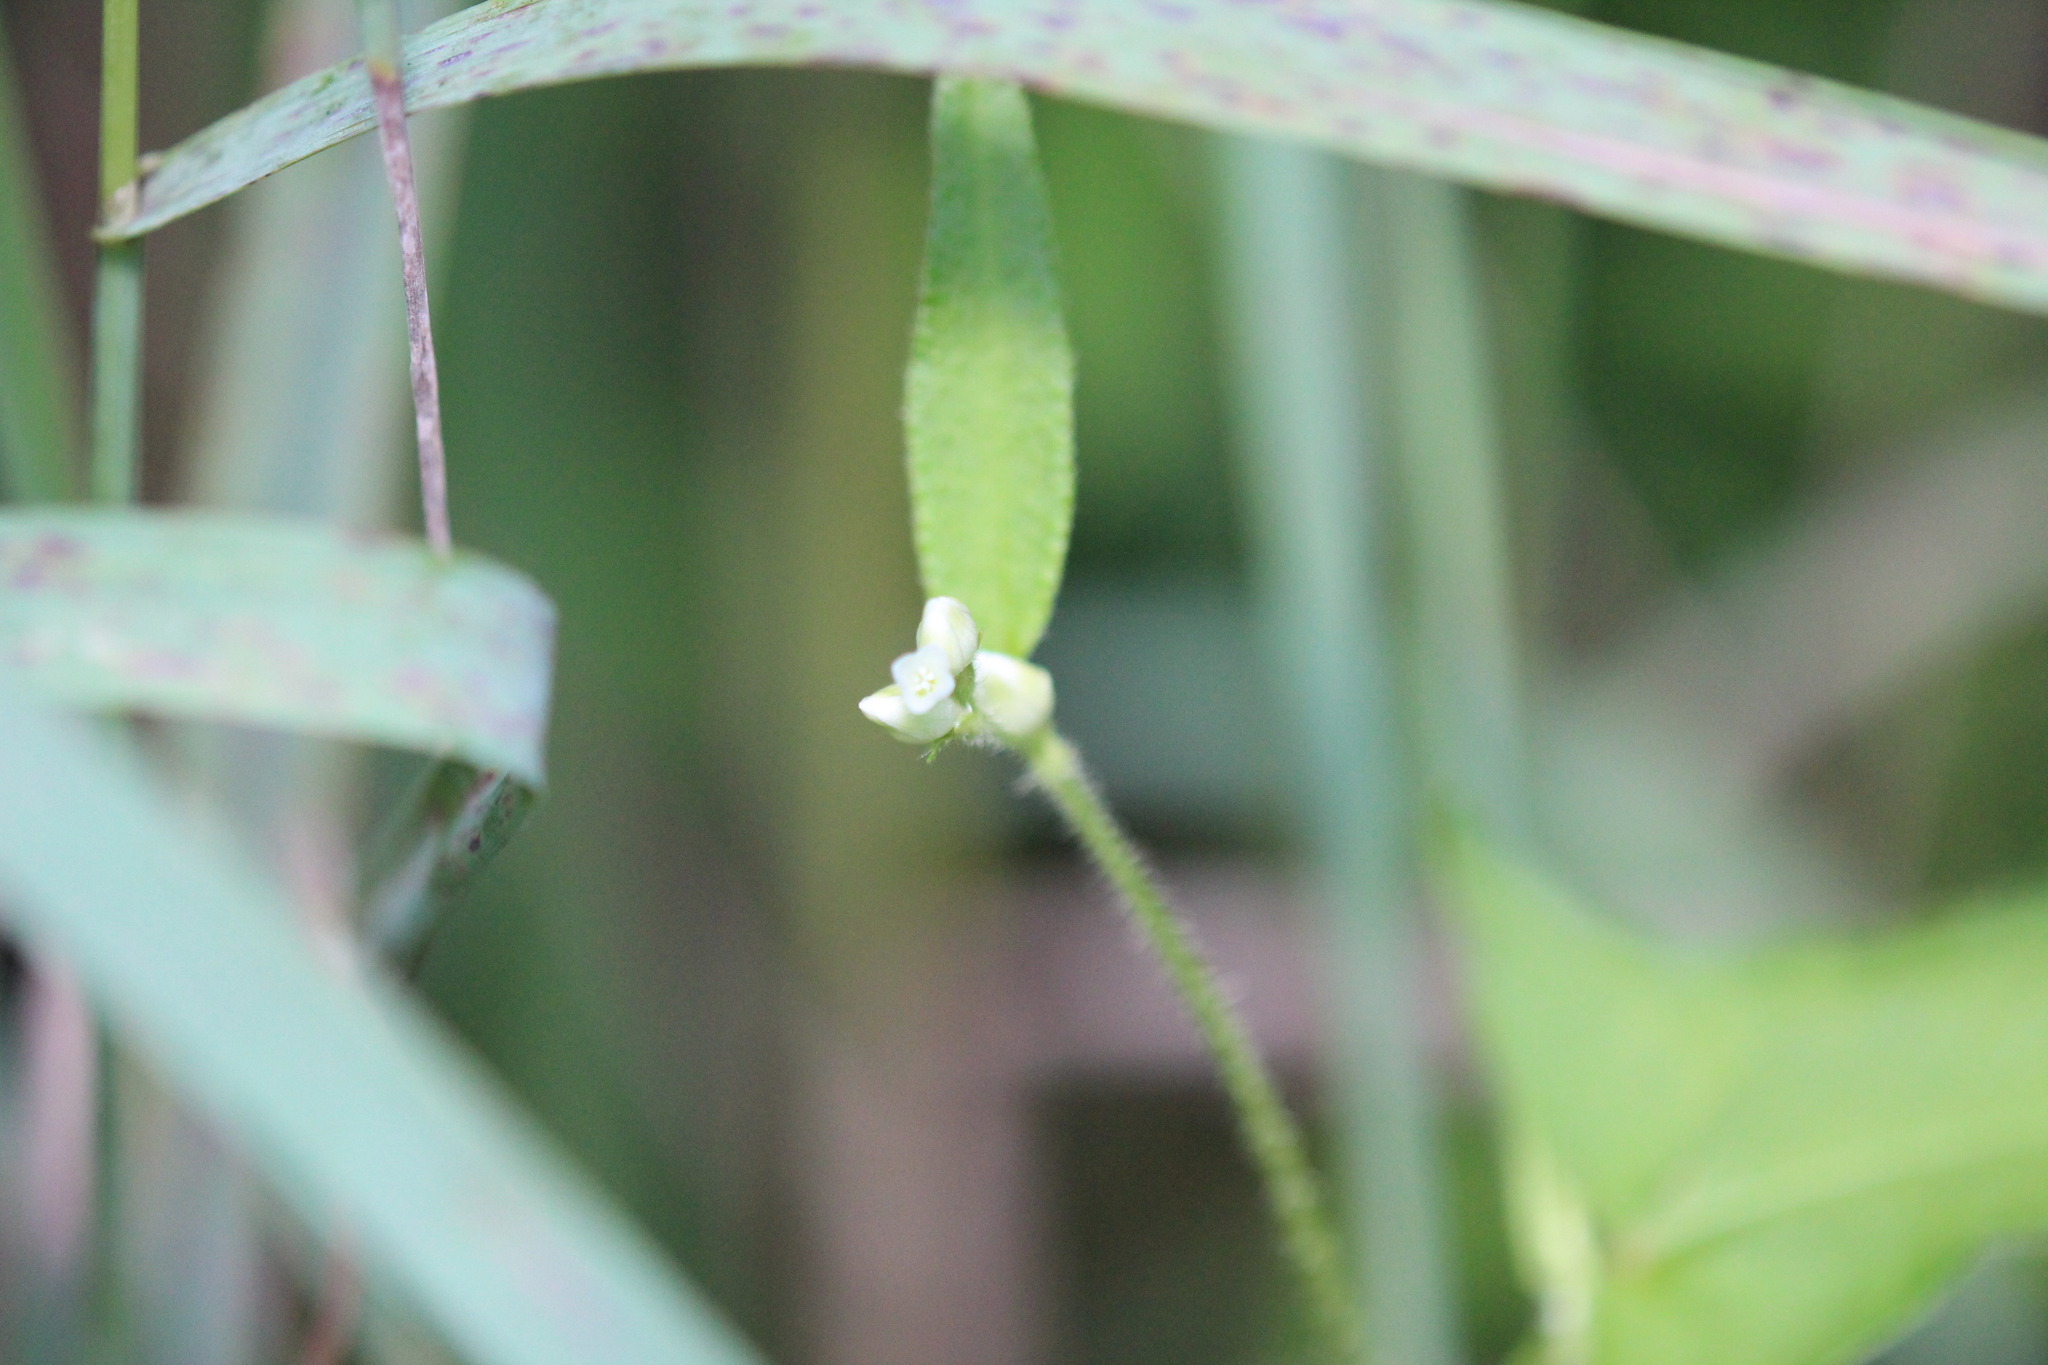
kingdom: Plantae
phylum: Tracheophyta
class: Magnoliopsida
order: Caryophyllales
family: Polygonaceae
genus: Persicaria
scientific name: Persicaria arifolia
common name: Halberd-leaved tear-thumb
